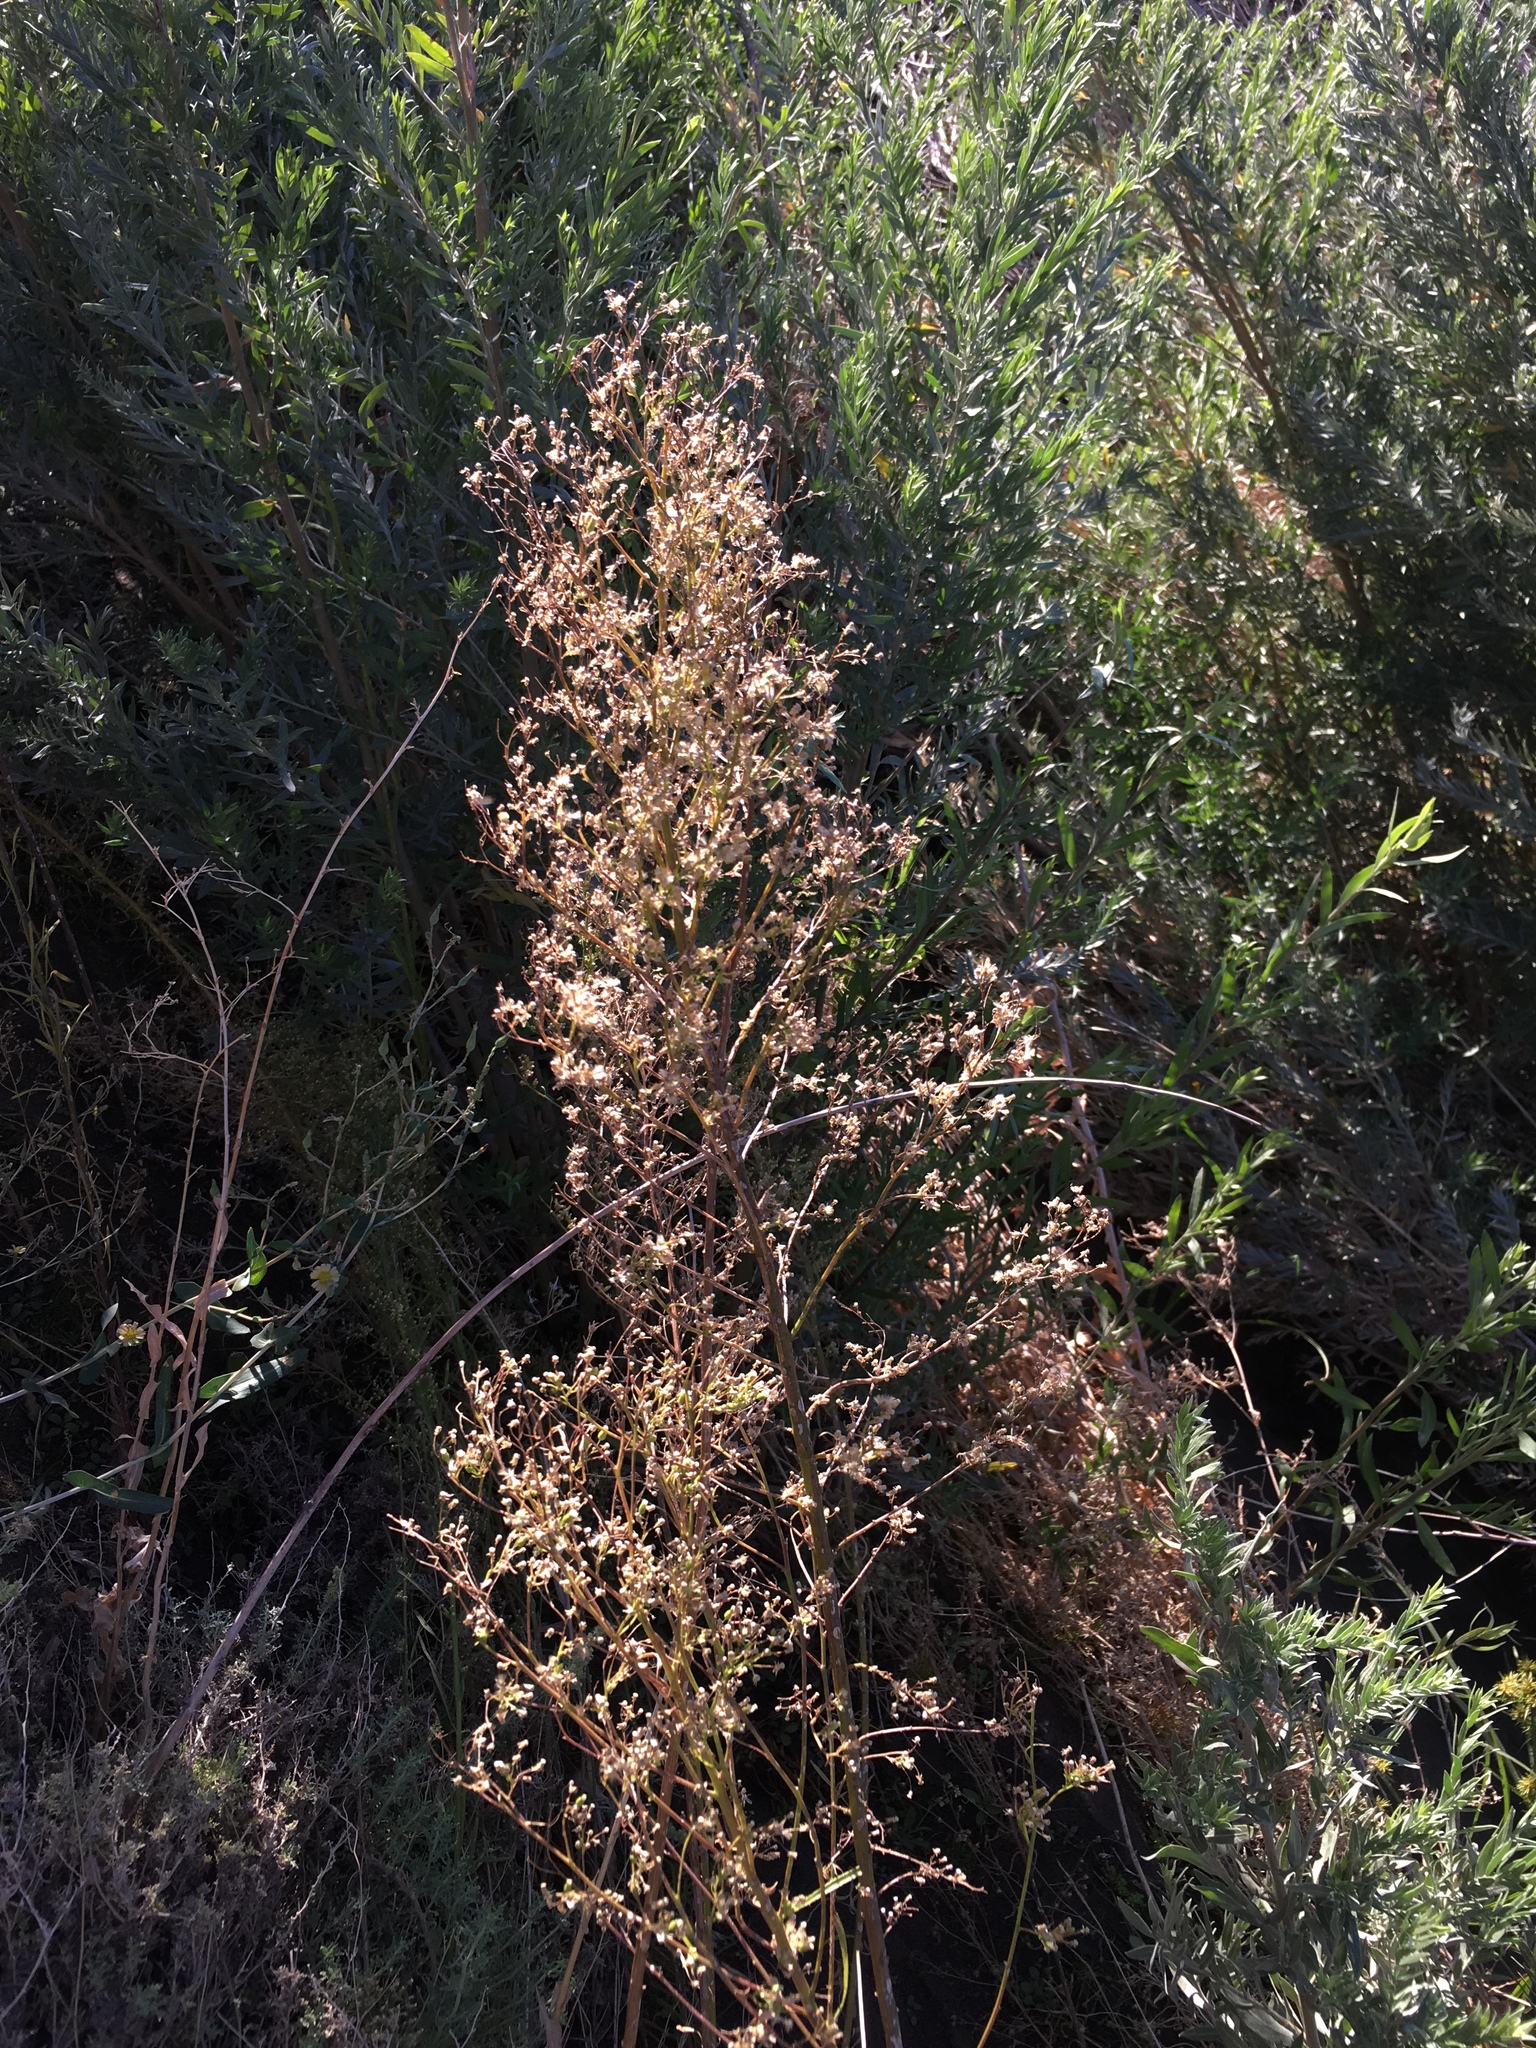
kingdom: Plantae
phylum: Tracheophyta
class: Magnoliopsida
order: Asterales
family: Asteraceae
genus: Erigeron
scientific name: Erigeron canadensis
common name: Canadian fleabane
